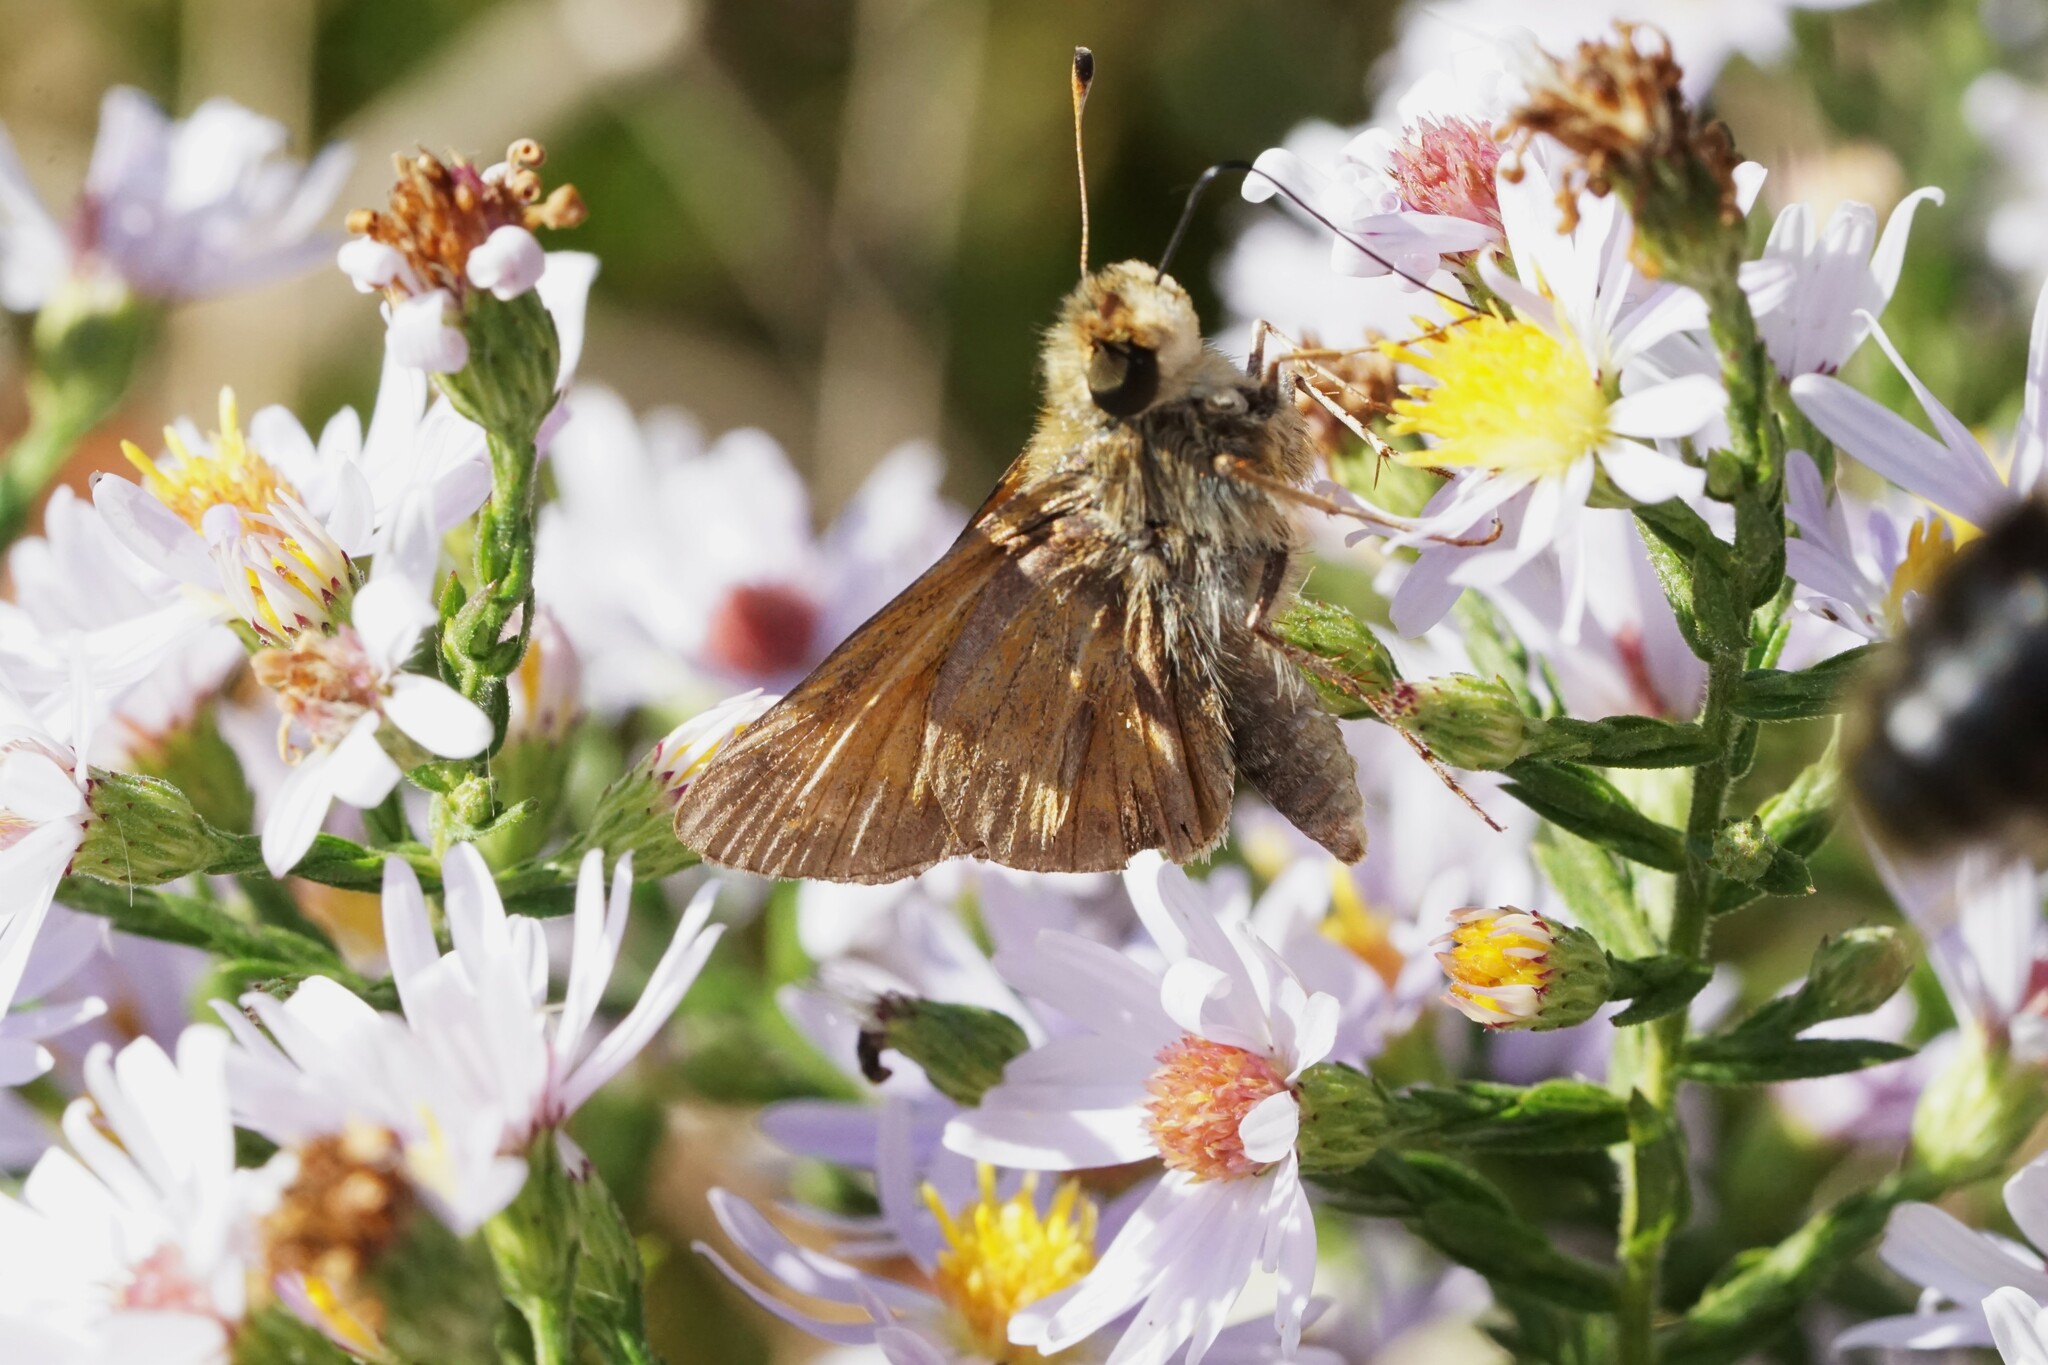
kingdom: Animalia
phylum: Arthropoda
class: Insecta
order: Lepidoptera
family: Hesperiidae
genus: Atalopedes
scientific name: Atalopedes
